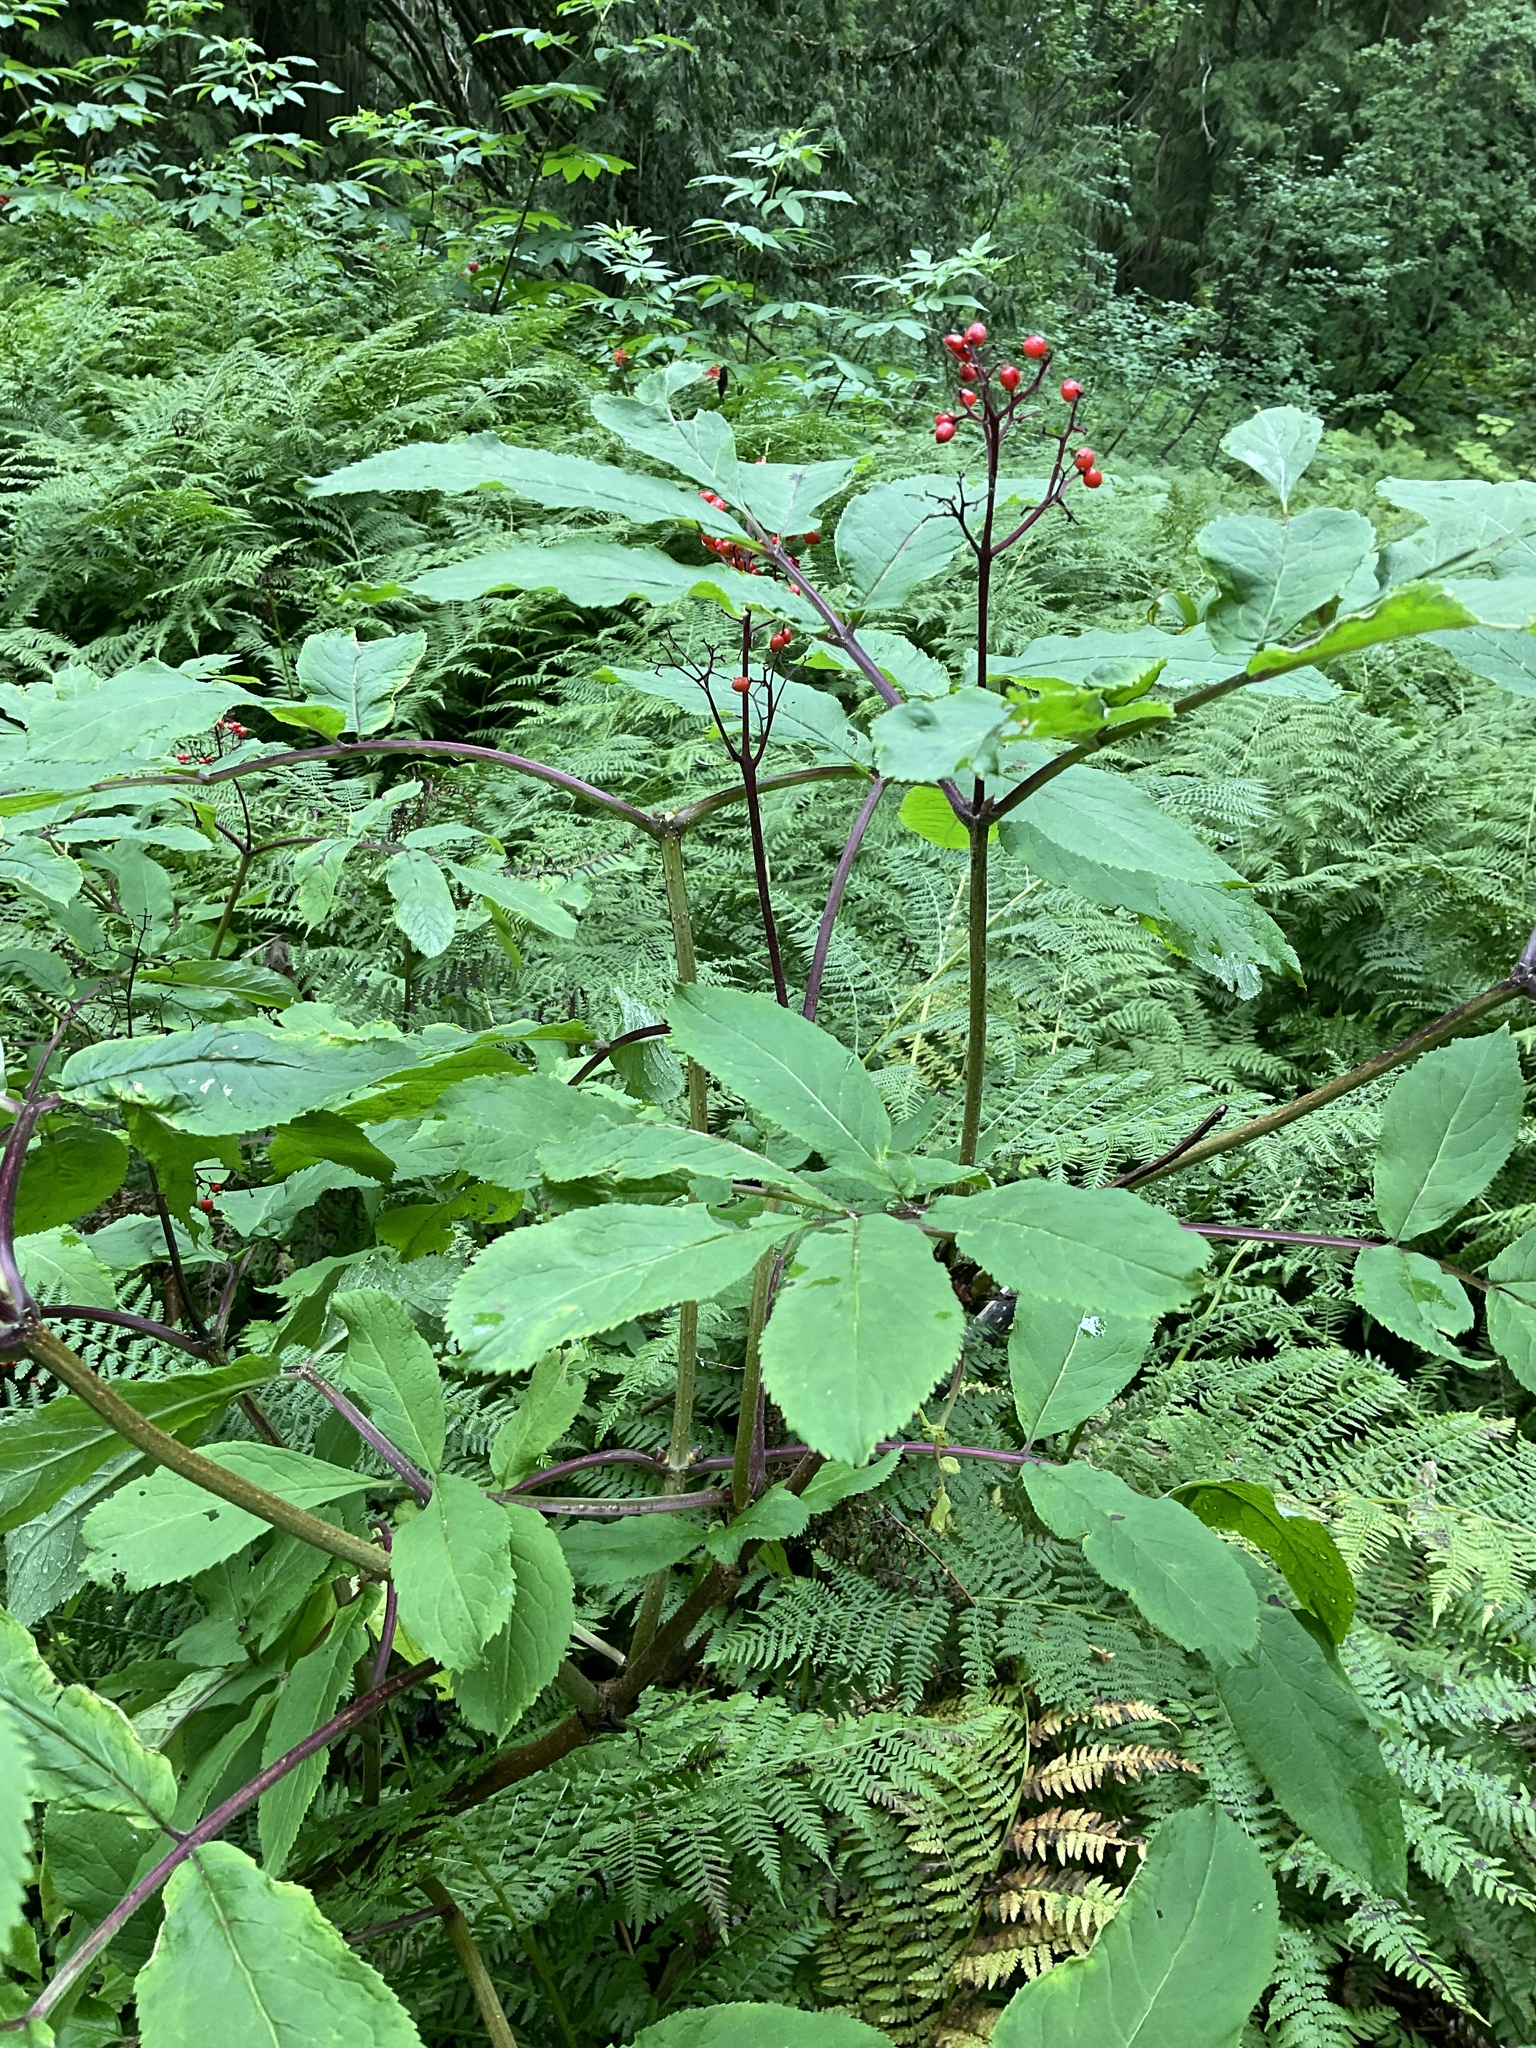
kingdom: Plantae
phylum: Tracheophyta
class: Magnoliopsida
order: Dipsacales
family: Viburnaceae
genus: Sambucus
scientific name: Sambucus racemosa
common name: Red-berried elder
